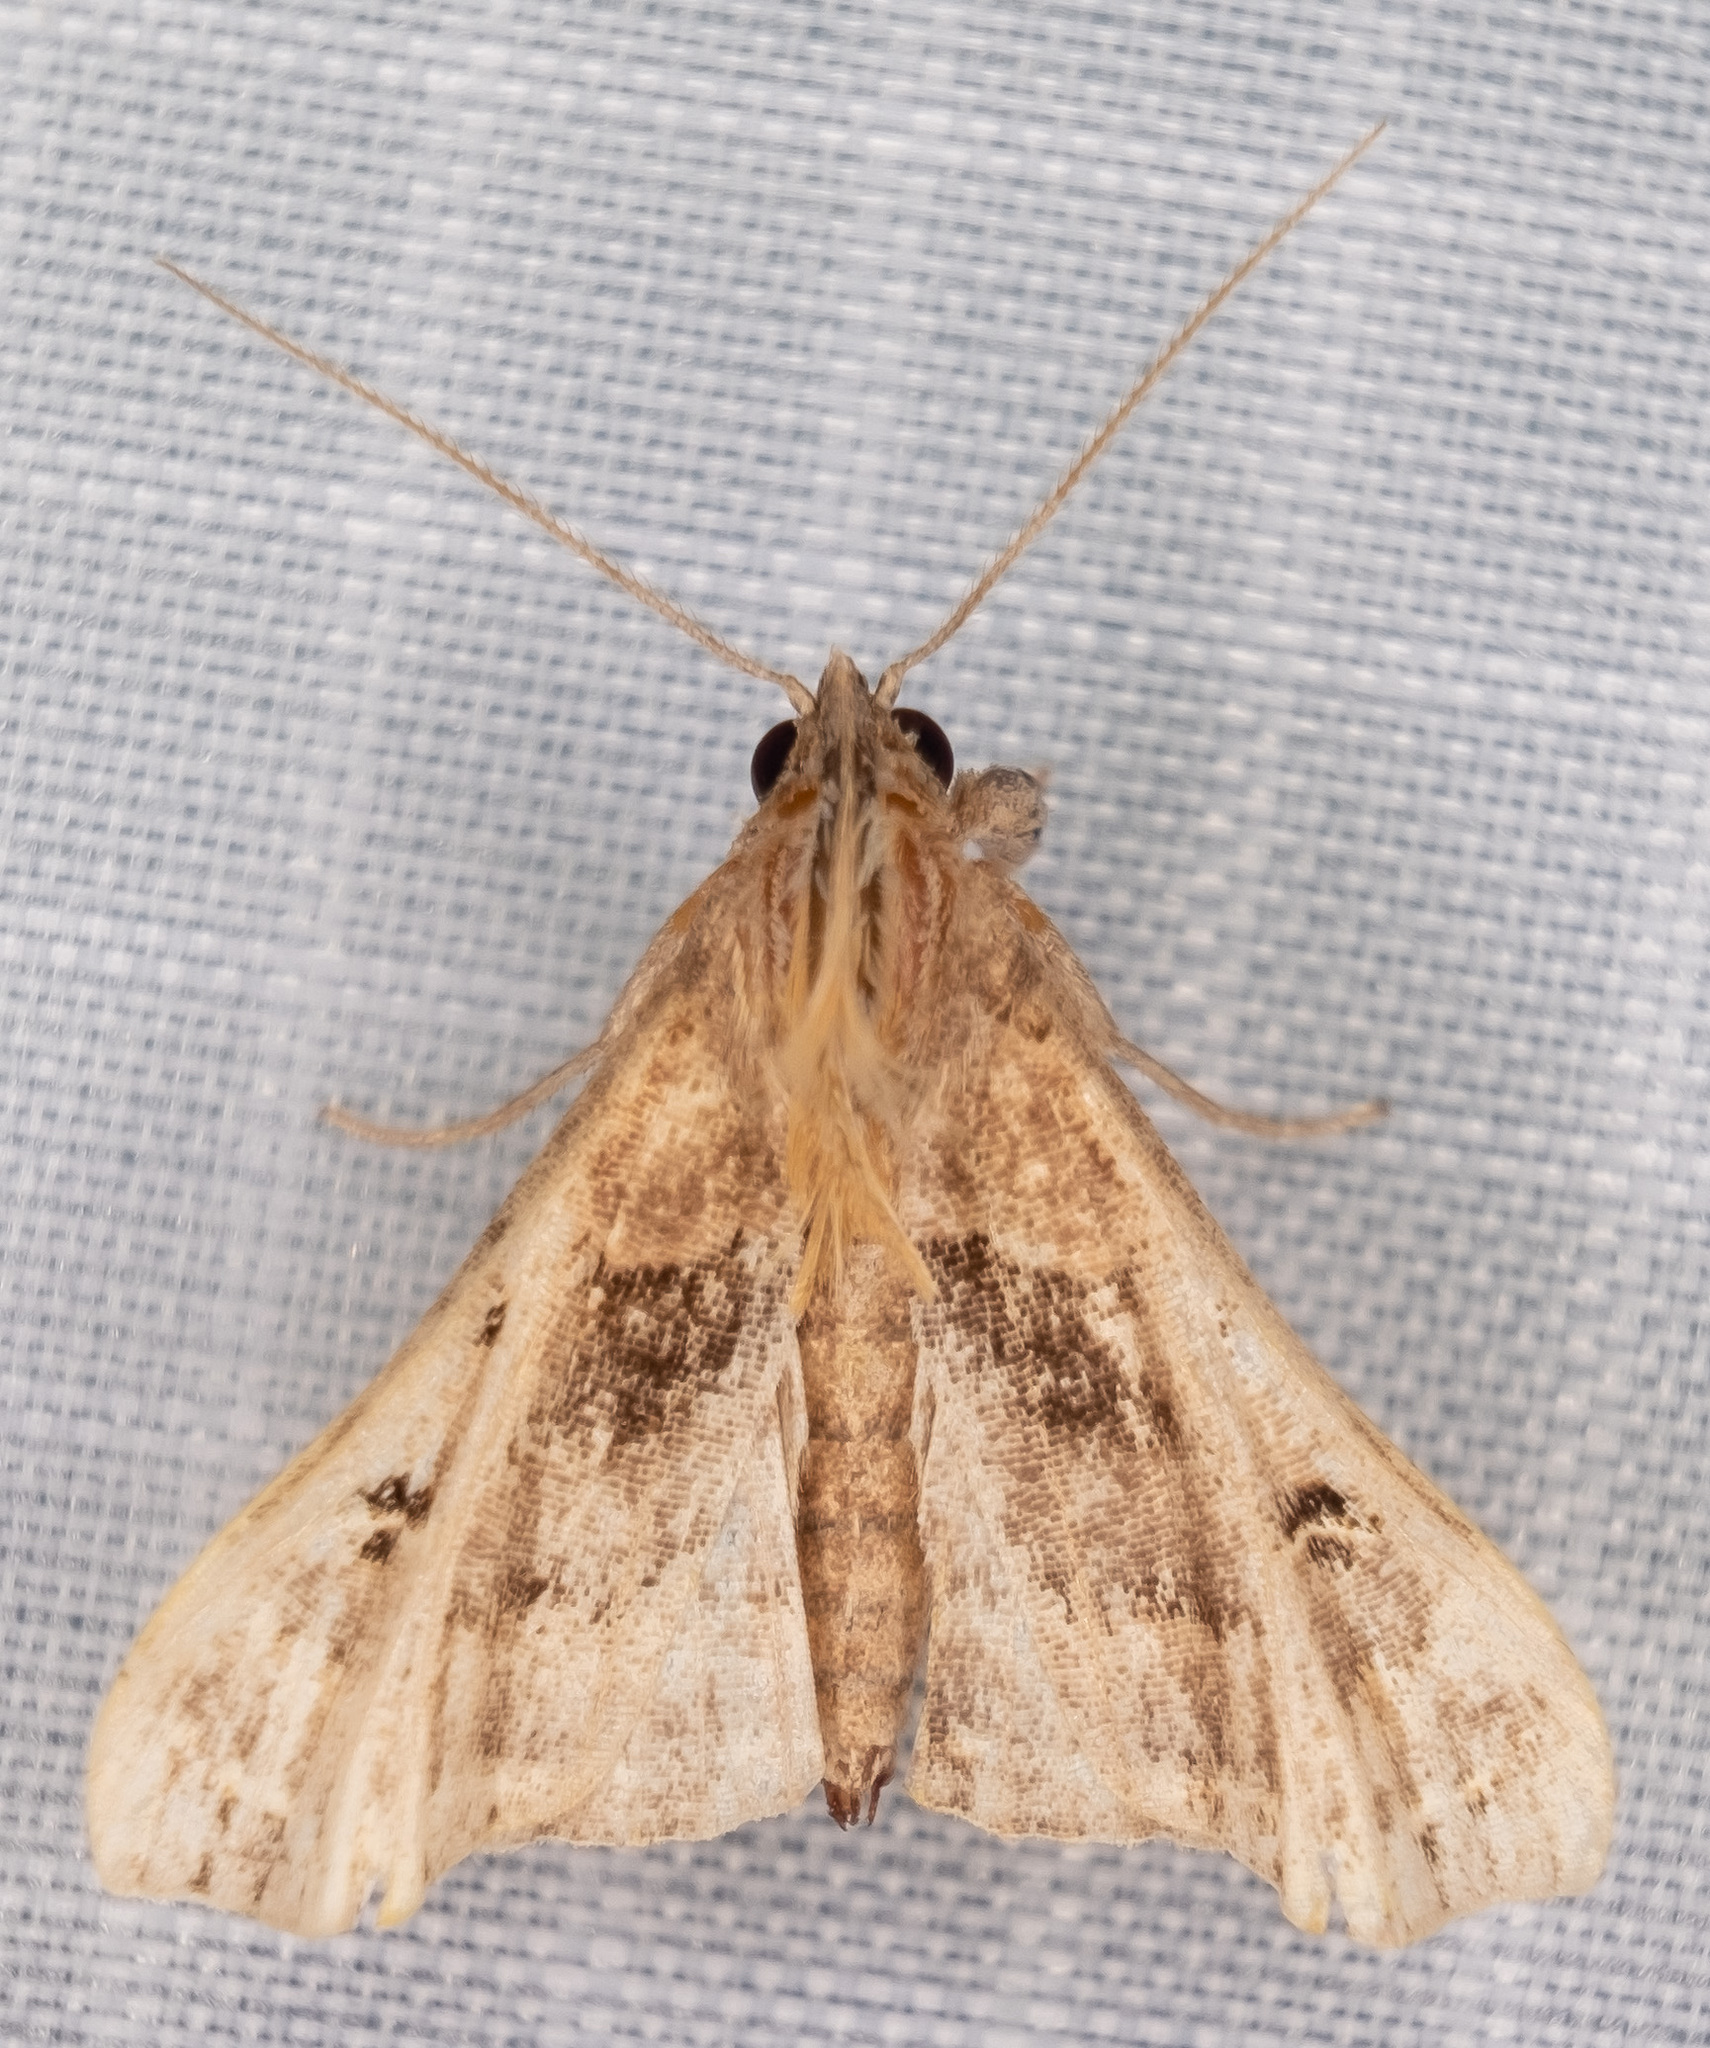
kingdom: Animalia
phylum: Arthropoda
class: Insecta
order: Lepidoptera
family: Erebidae
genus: Palthis
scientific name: Palthis asopialis
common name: Faint-spotted palthis moth
